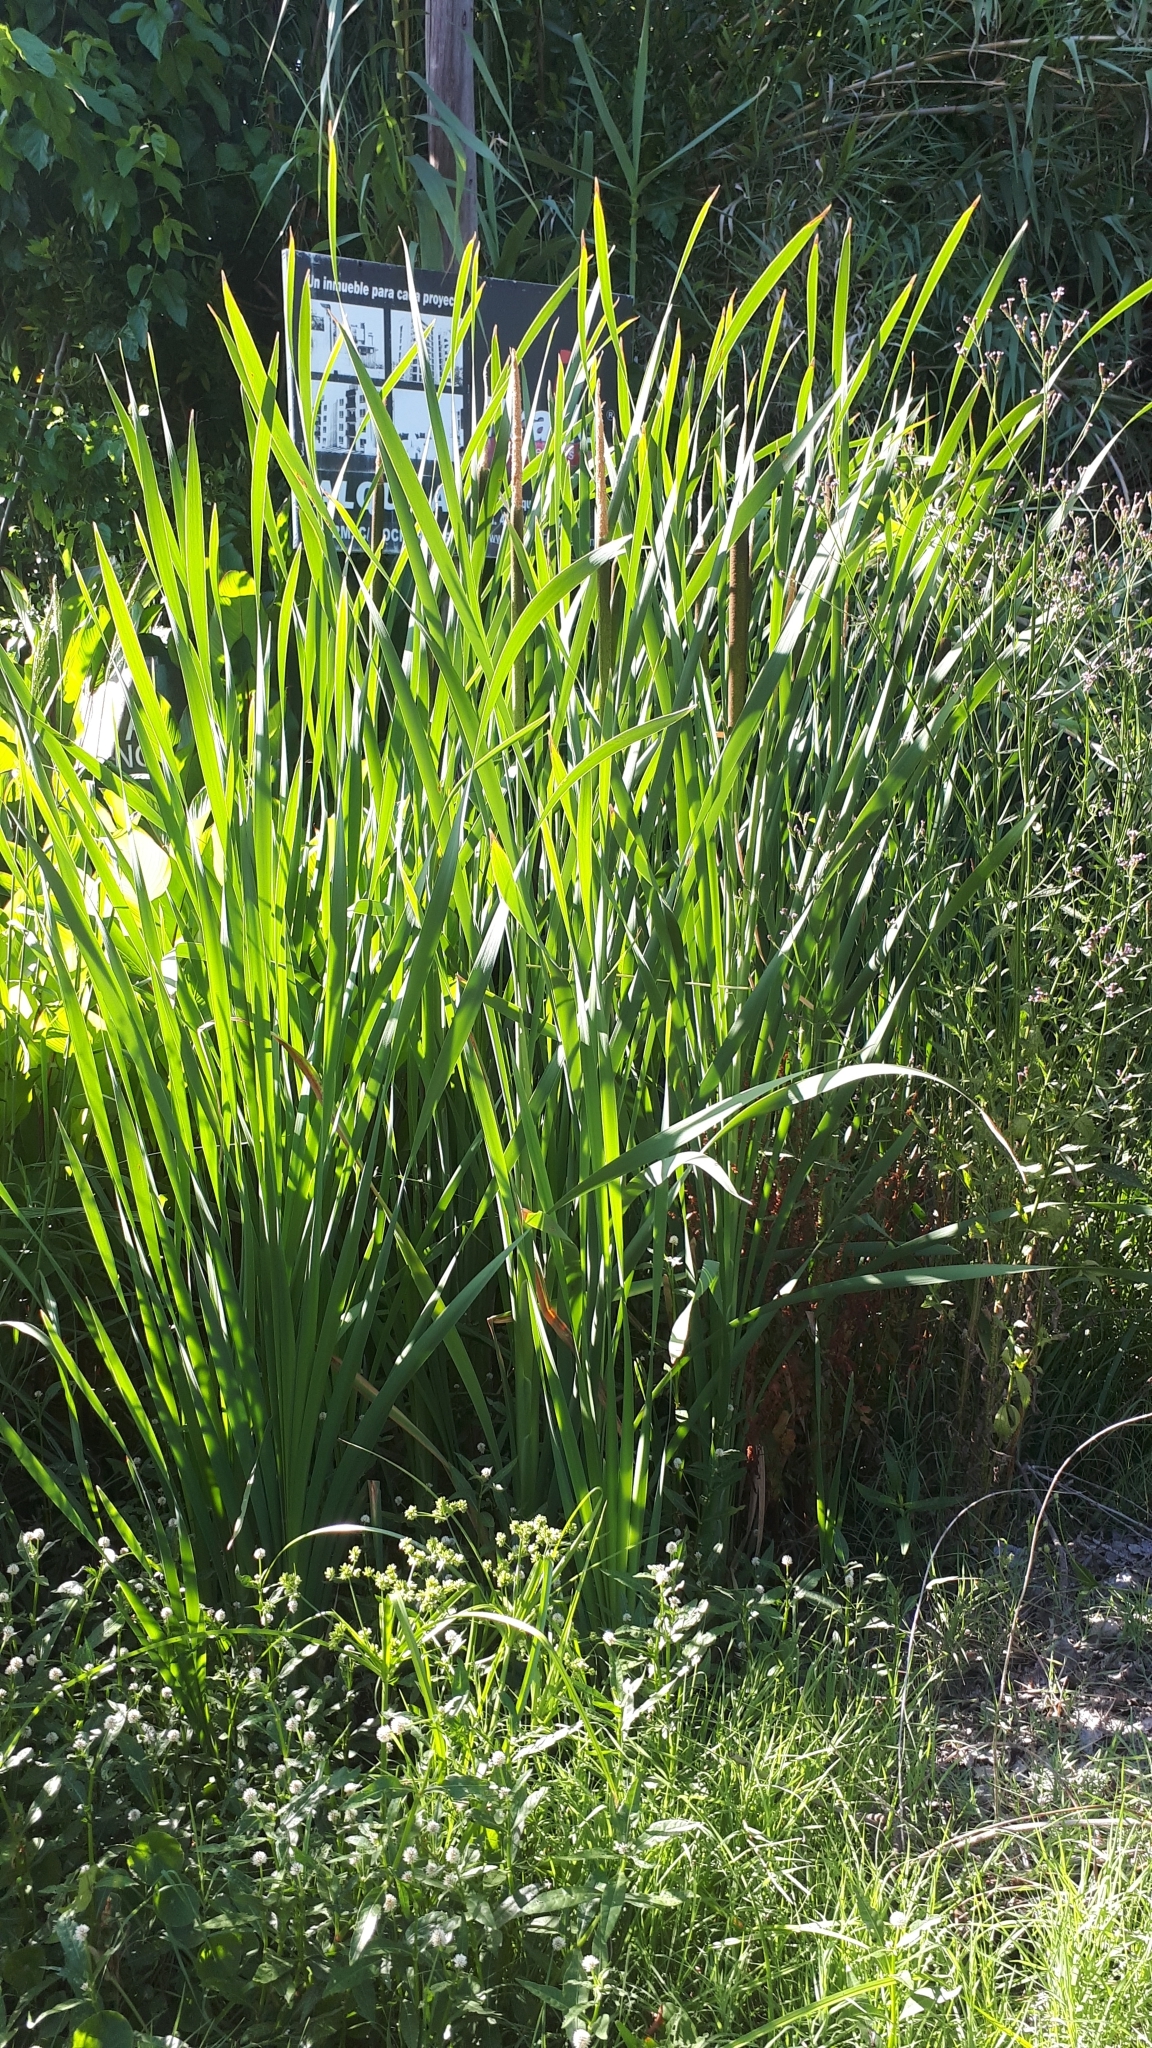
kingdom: Plantae
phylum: Tracheophyta
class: Liliopsida
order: Poales
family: Typhaceae
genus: Typha
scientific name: Typha latifolia
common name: Broadleaf cattail
